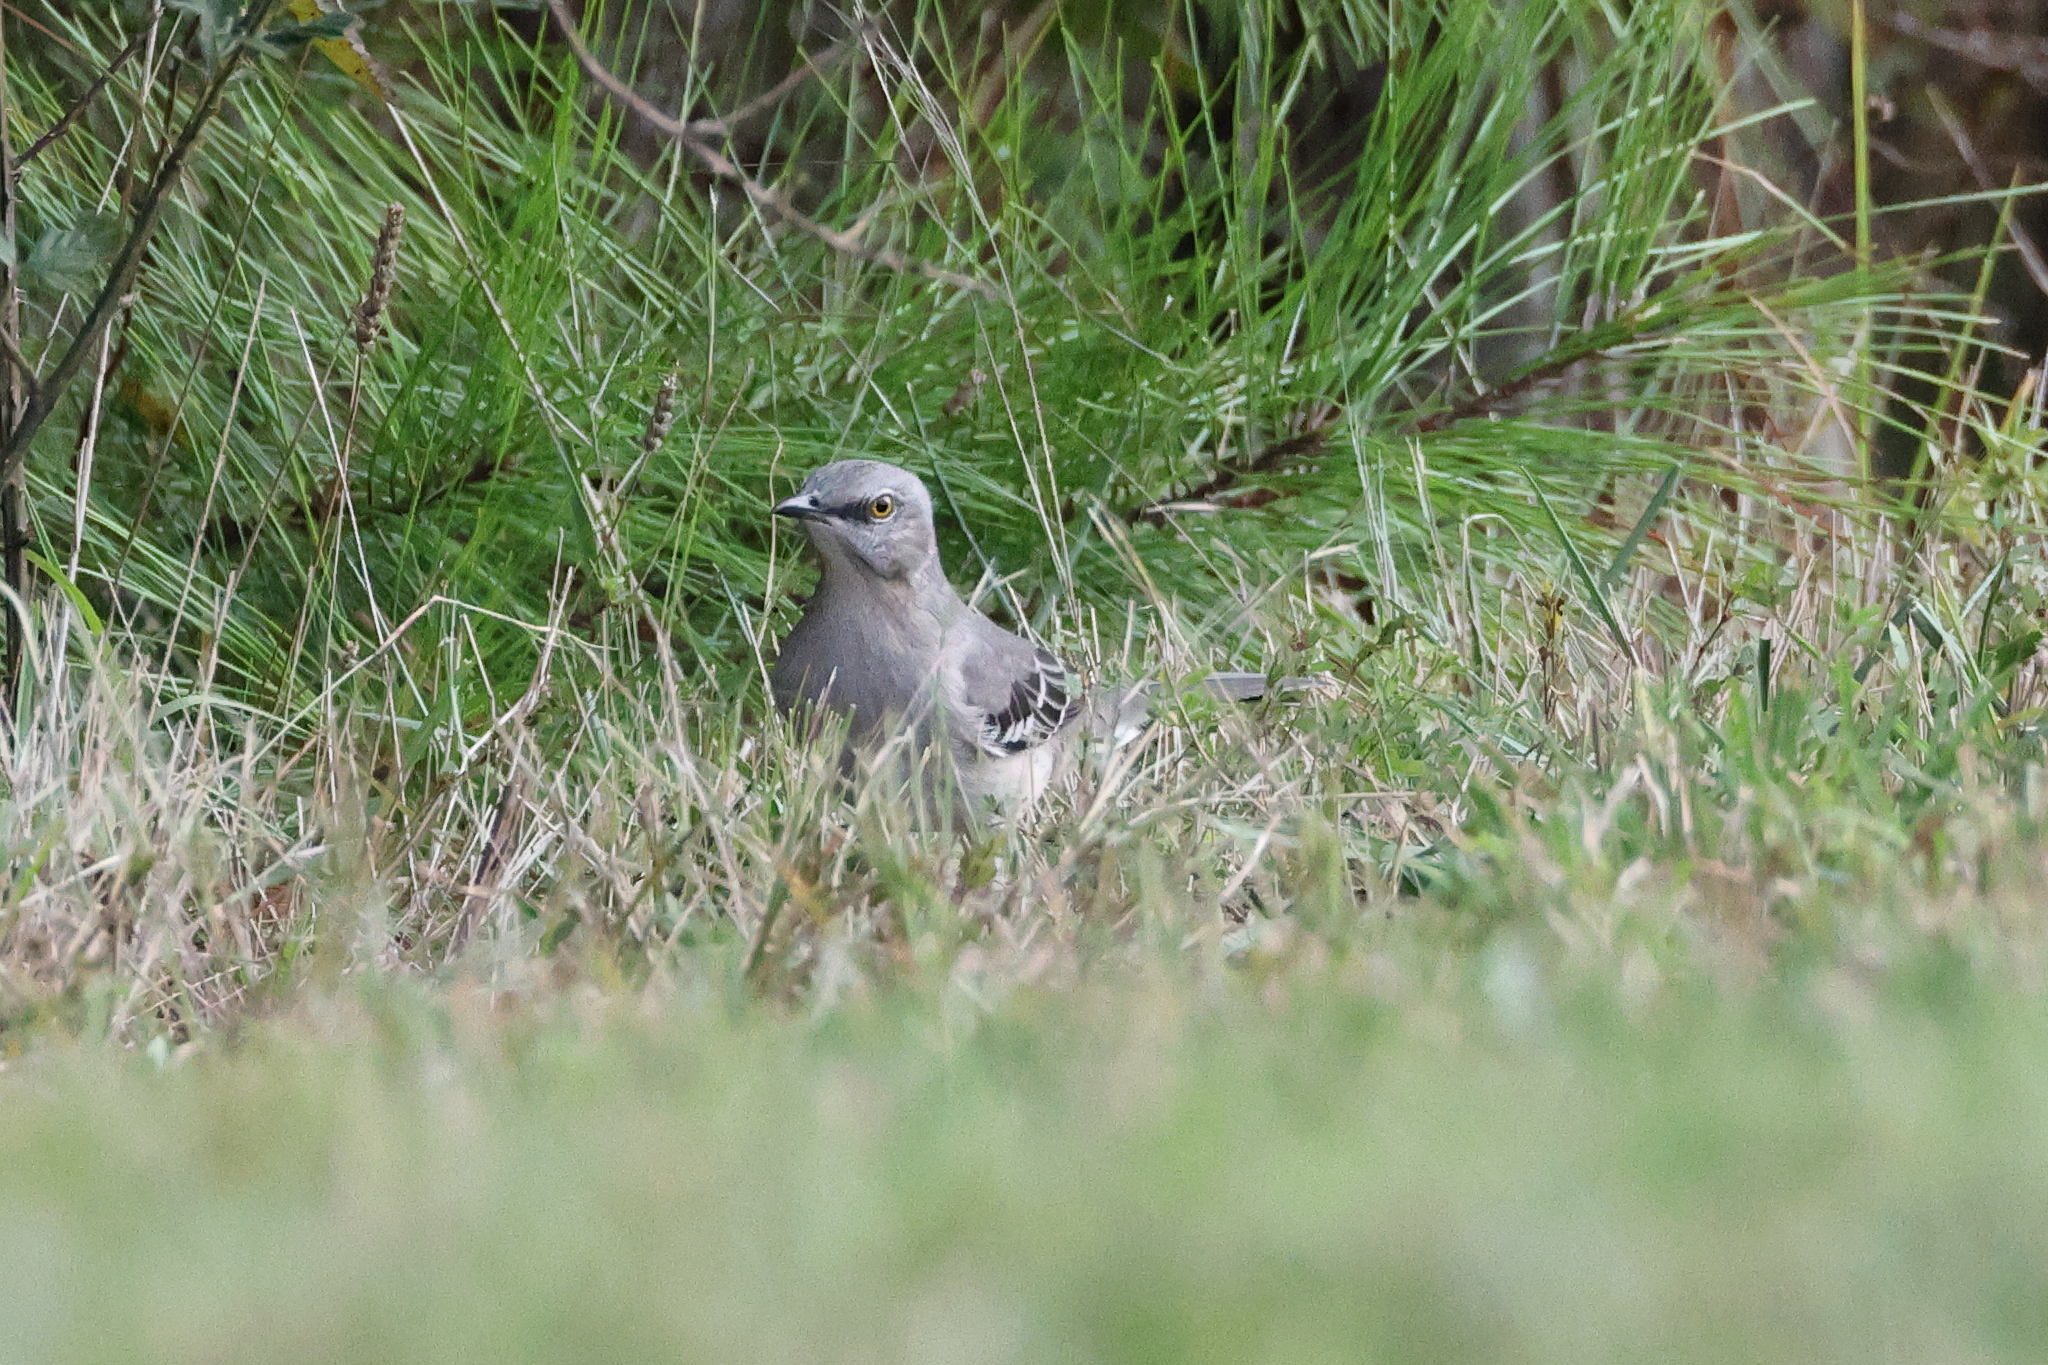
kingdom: Animalia
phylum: Chordata
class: Aves
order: Passeriformes
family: Mimidae
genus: Mimus
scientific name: Mimus polyglottos
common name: Northern mockingbird
